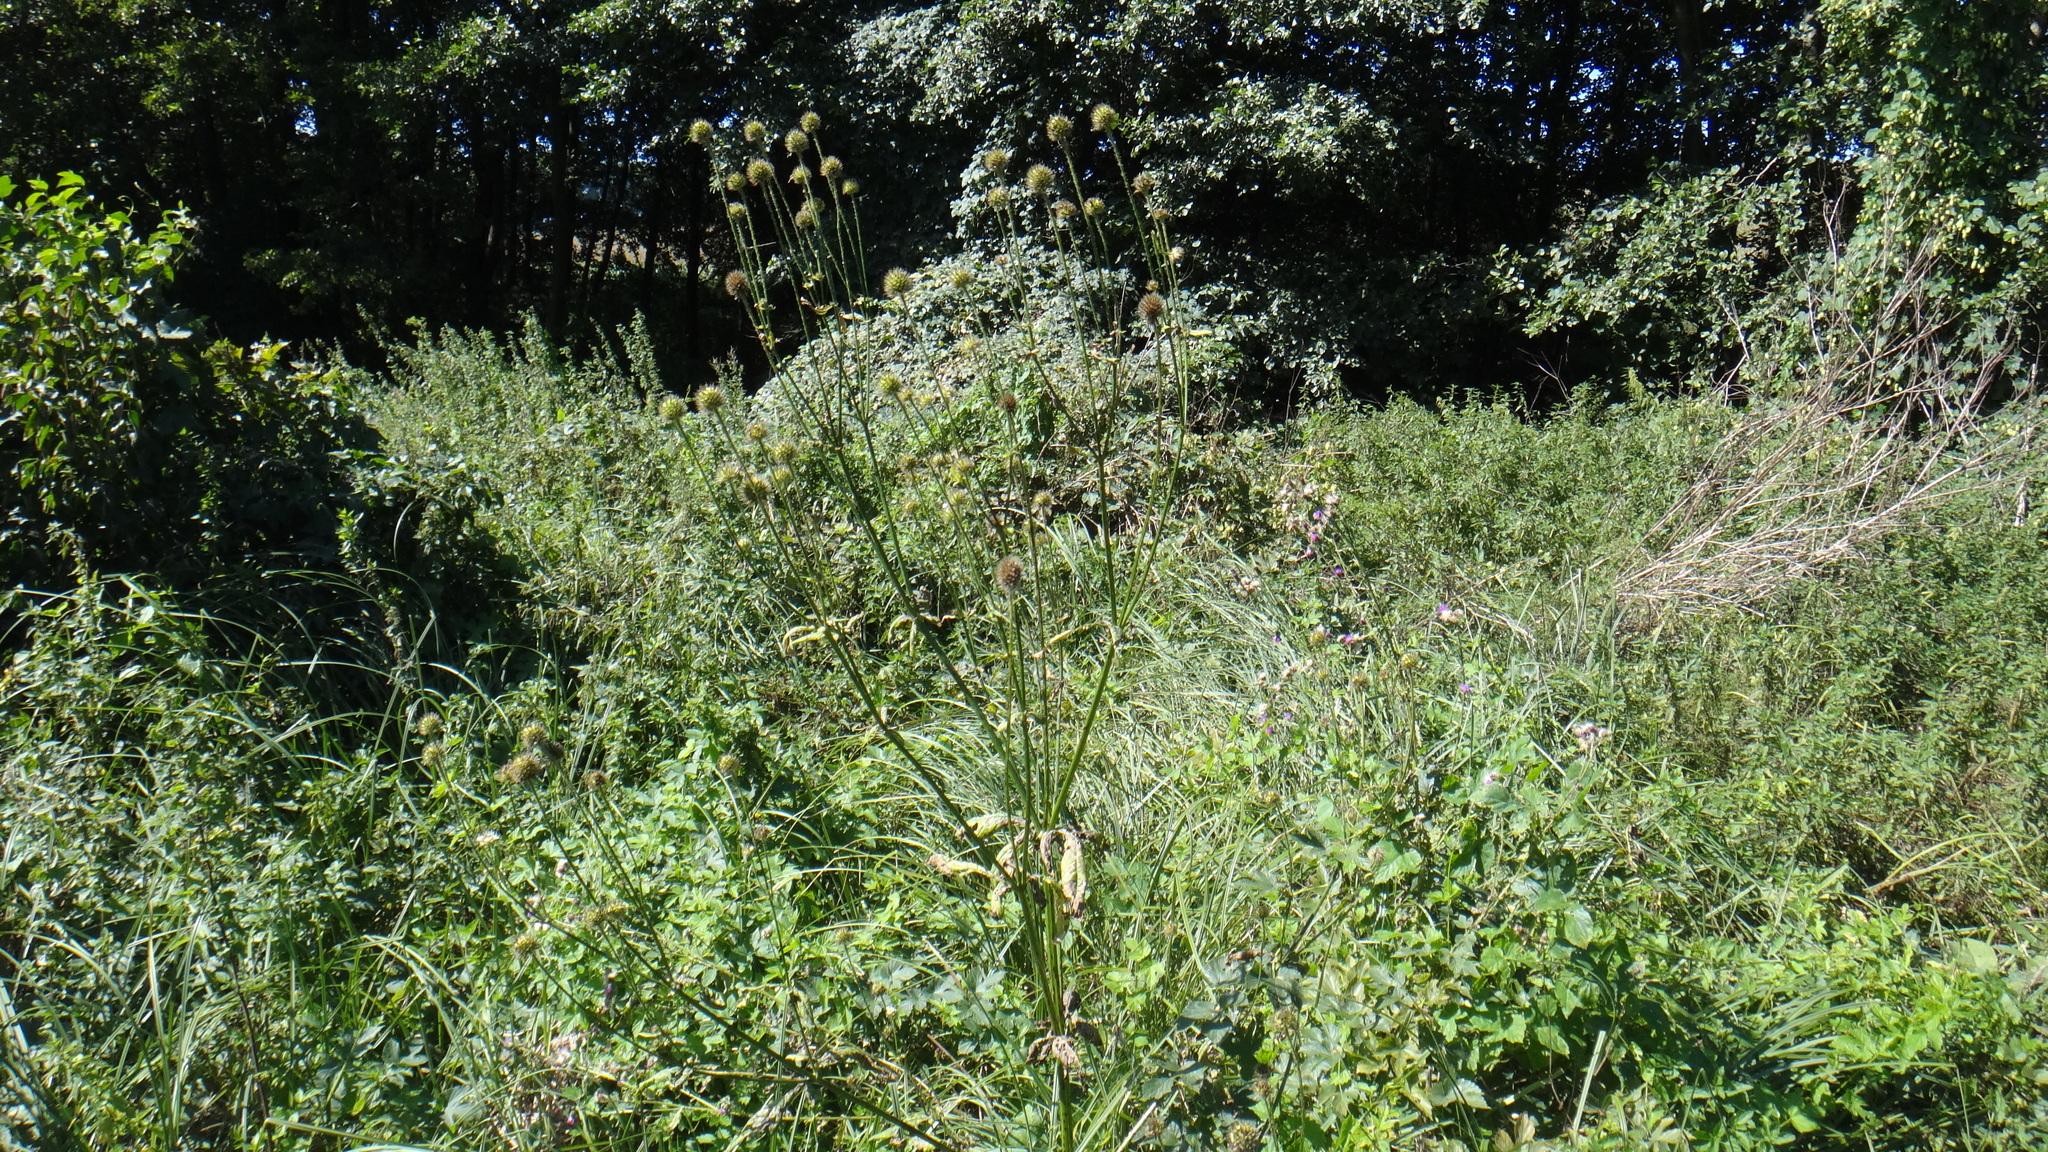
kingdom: Plantae
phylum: Tracheophyta
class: Magnoliopsida
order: Dipsacales
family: Caprifoliaceae
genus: Dipsacus
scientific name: Dipsacus pilosus
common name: Small teasel
